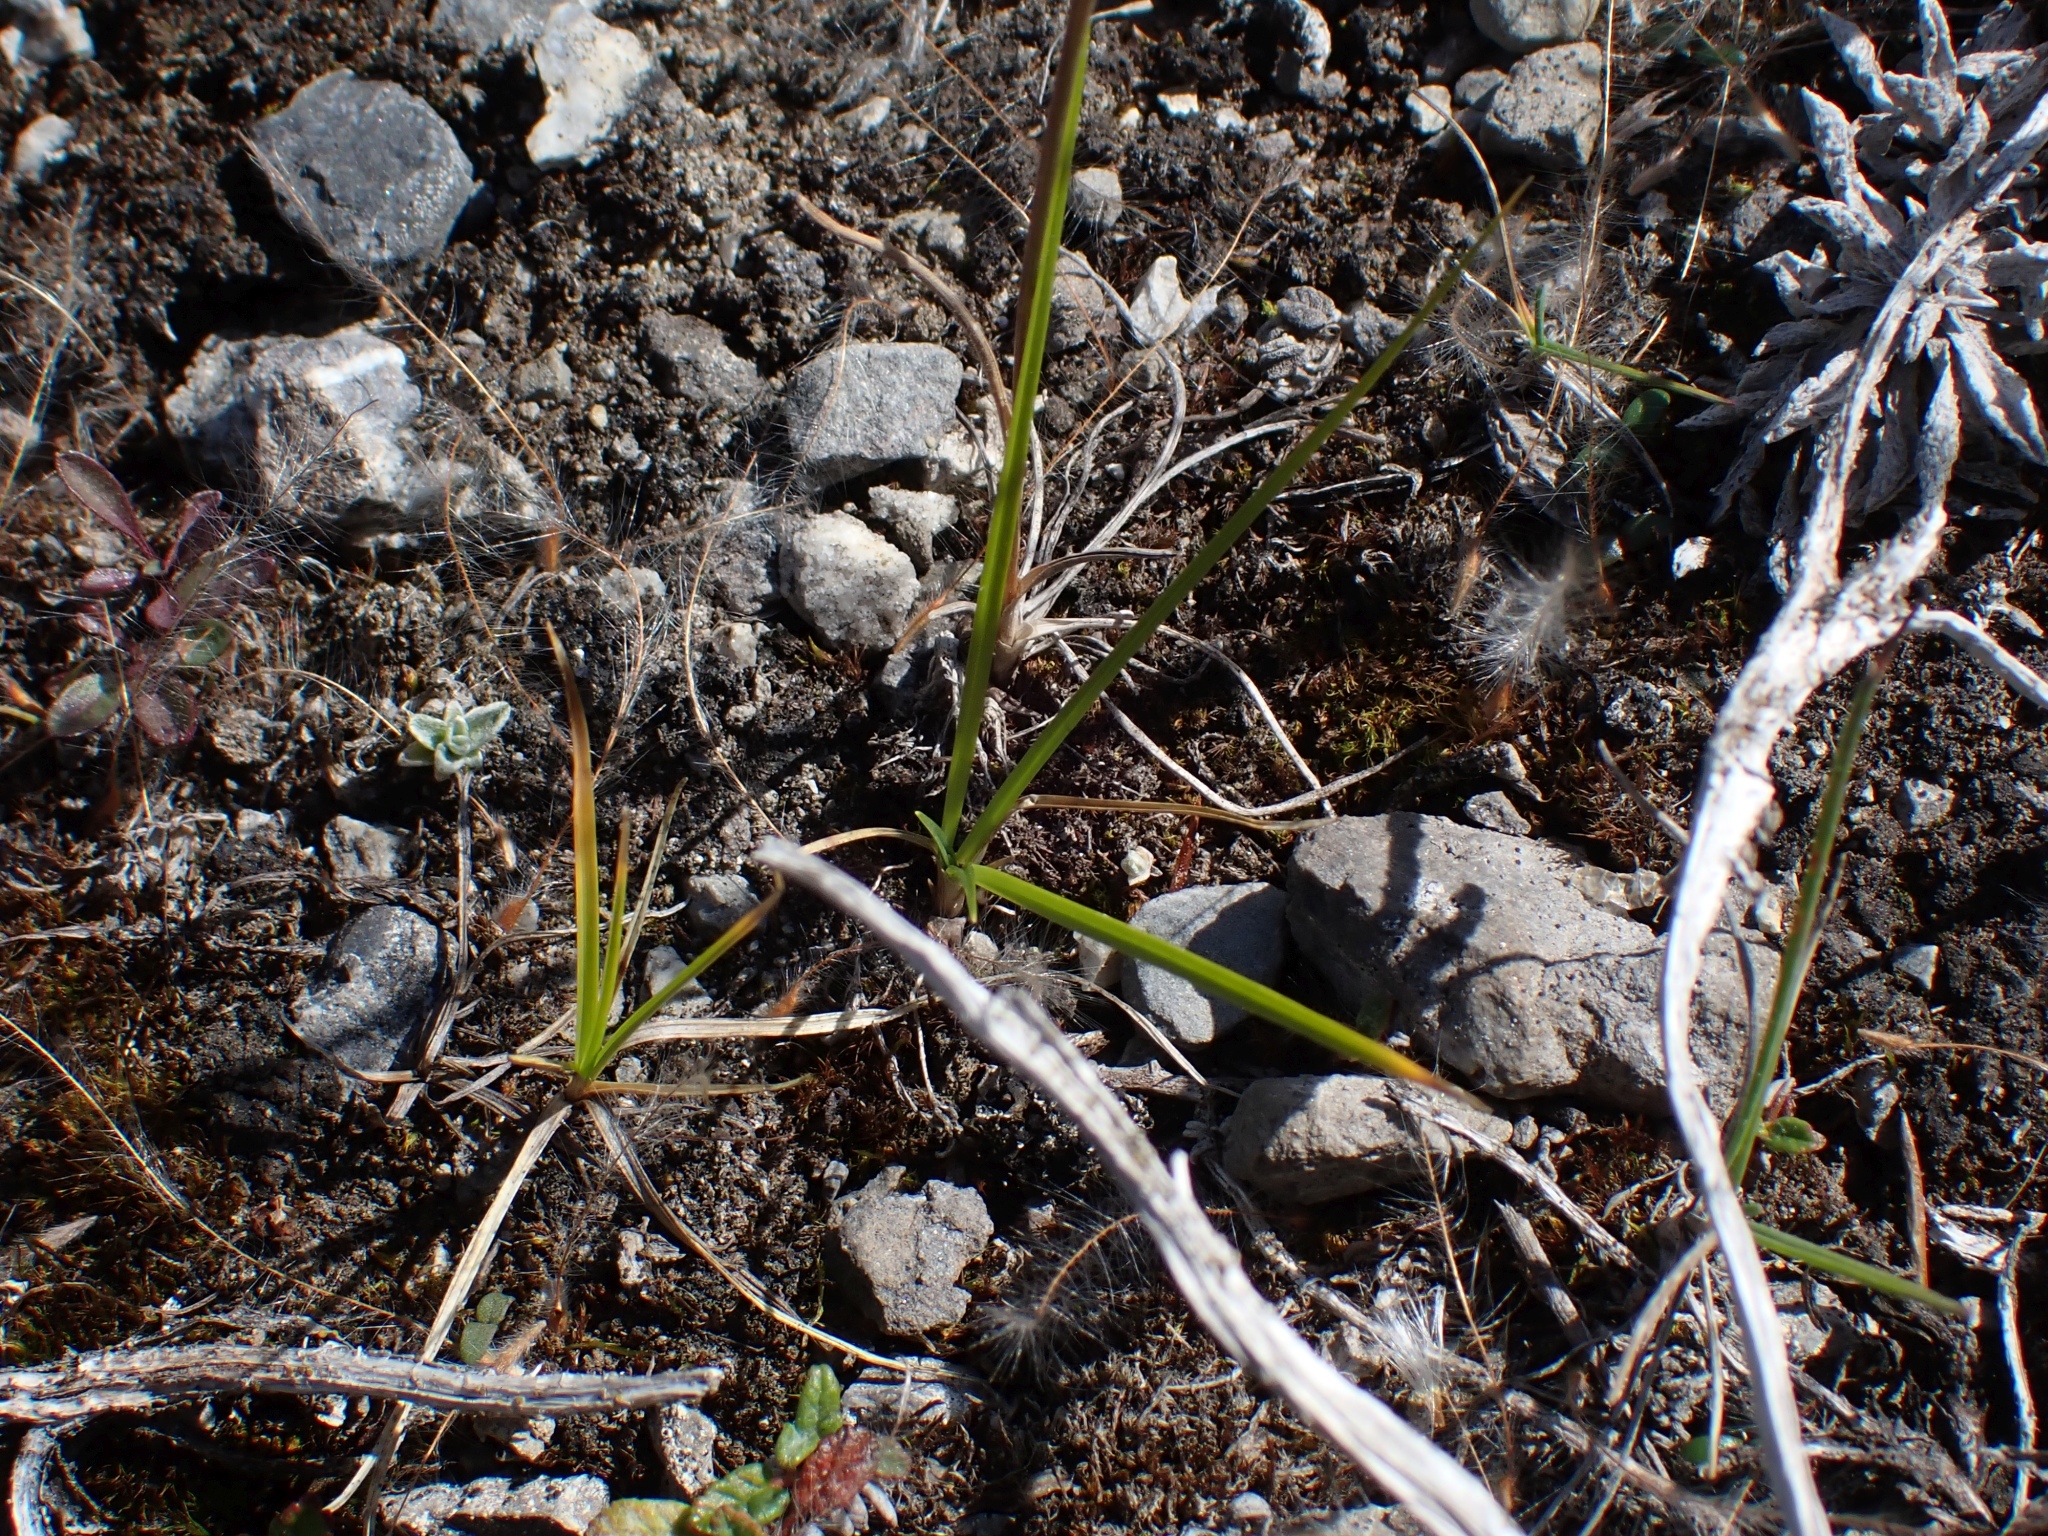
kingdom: Plantae
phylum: Tracheophyta
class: Liliopsida
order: Poales
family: Poaceae
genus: Danthonia
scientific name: Danthonia spicata
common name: Common wild oatgrass
